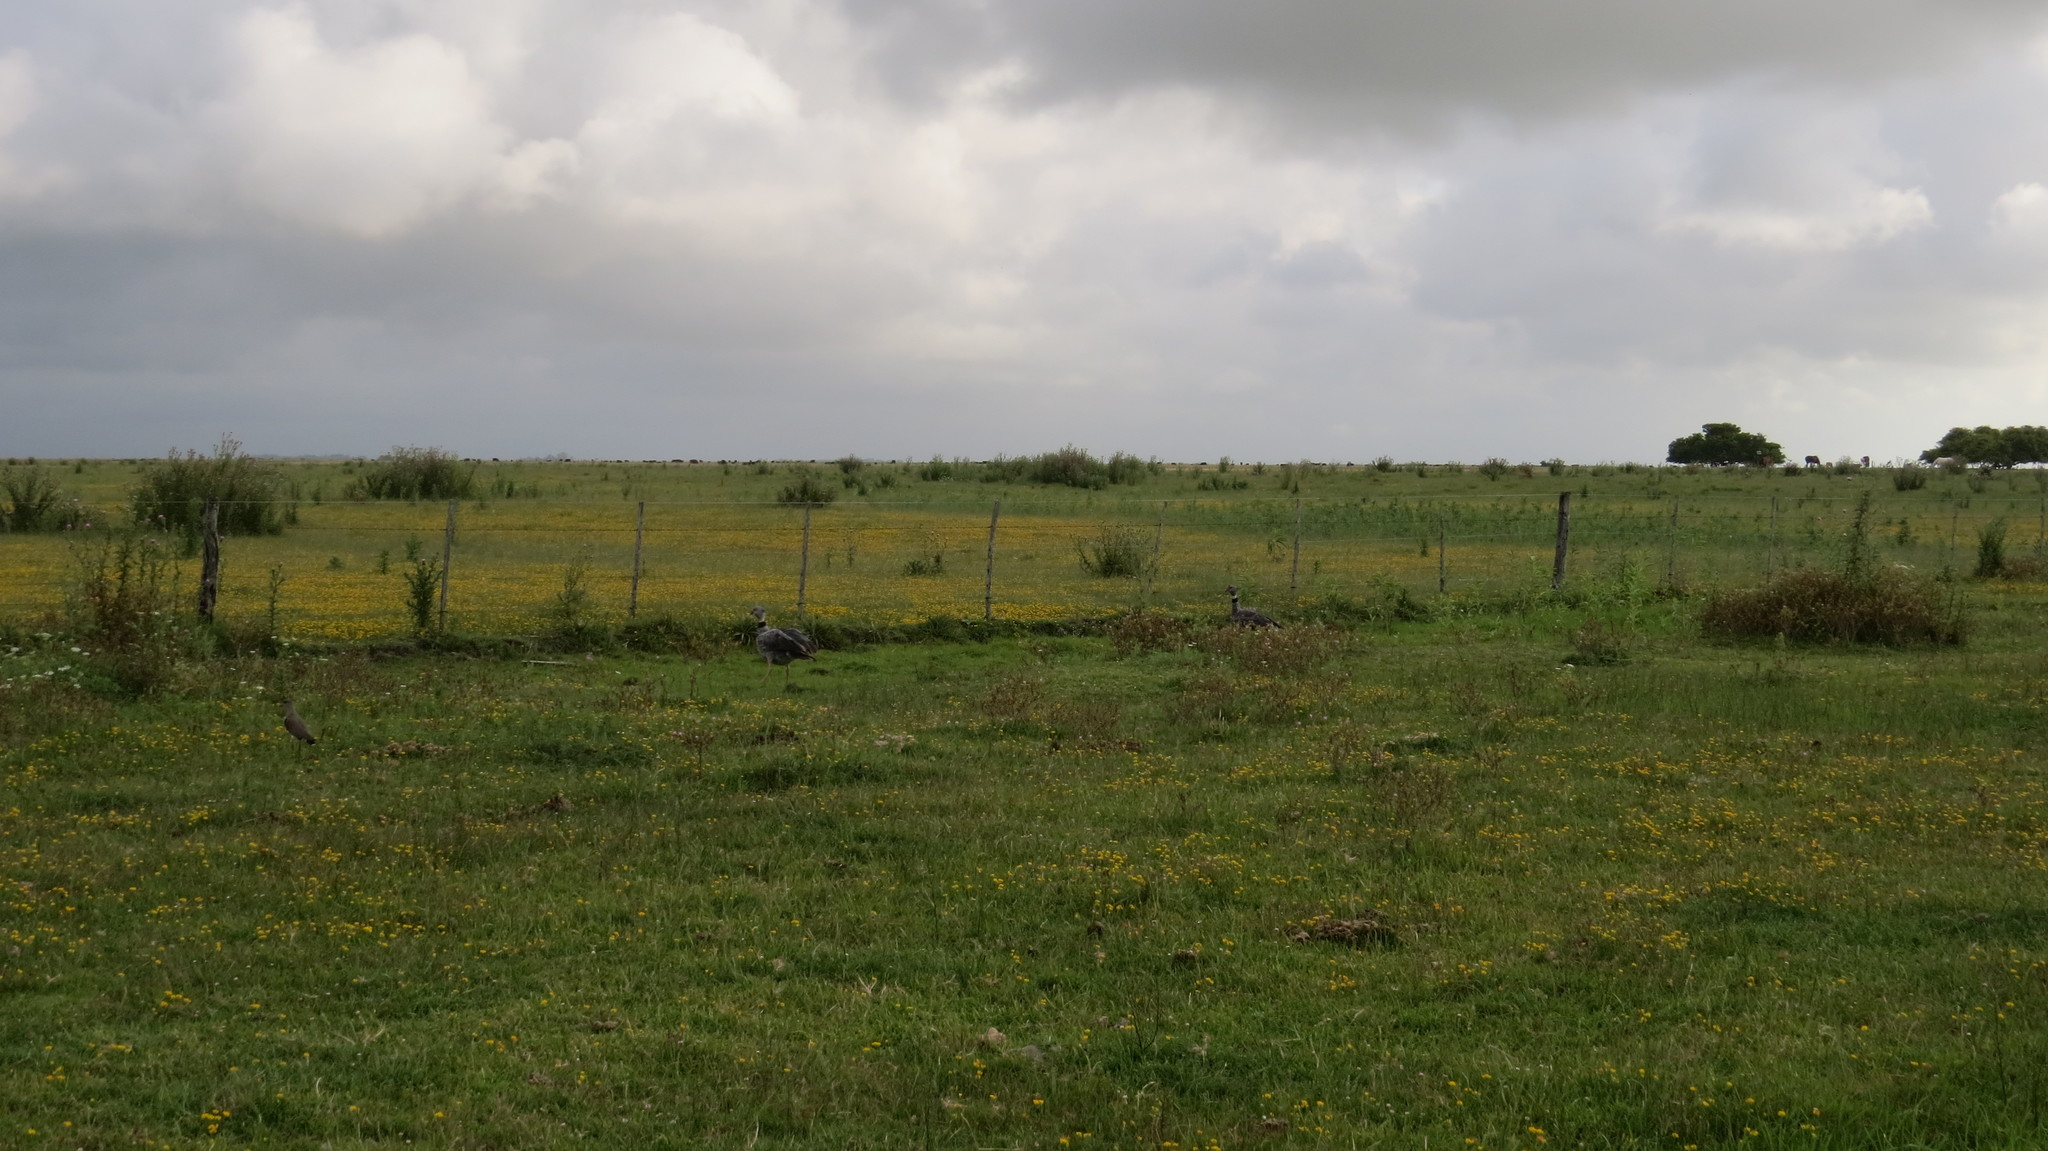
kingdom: Animalia
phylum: Chordata
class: Aves
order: Anseriformes
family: Anhimidae
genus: Chauna
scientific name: Chauna torquata
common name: Southern screamer
